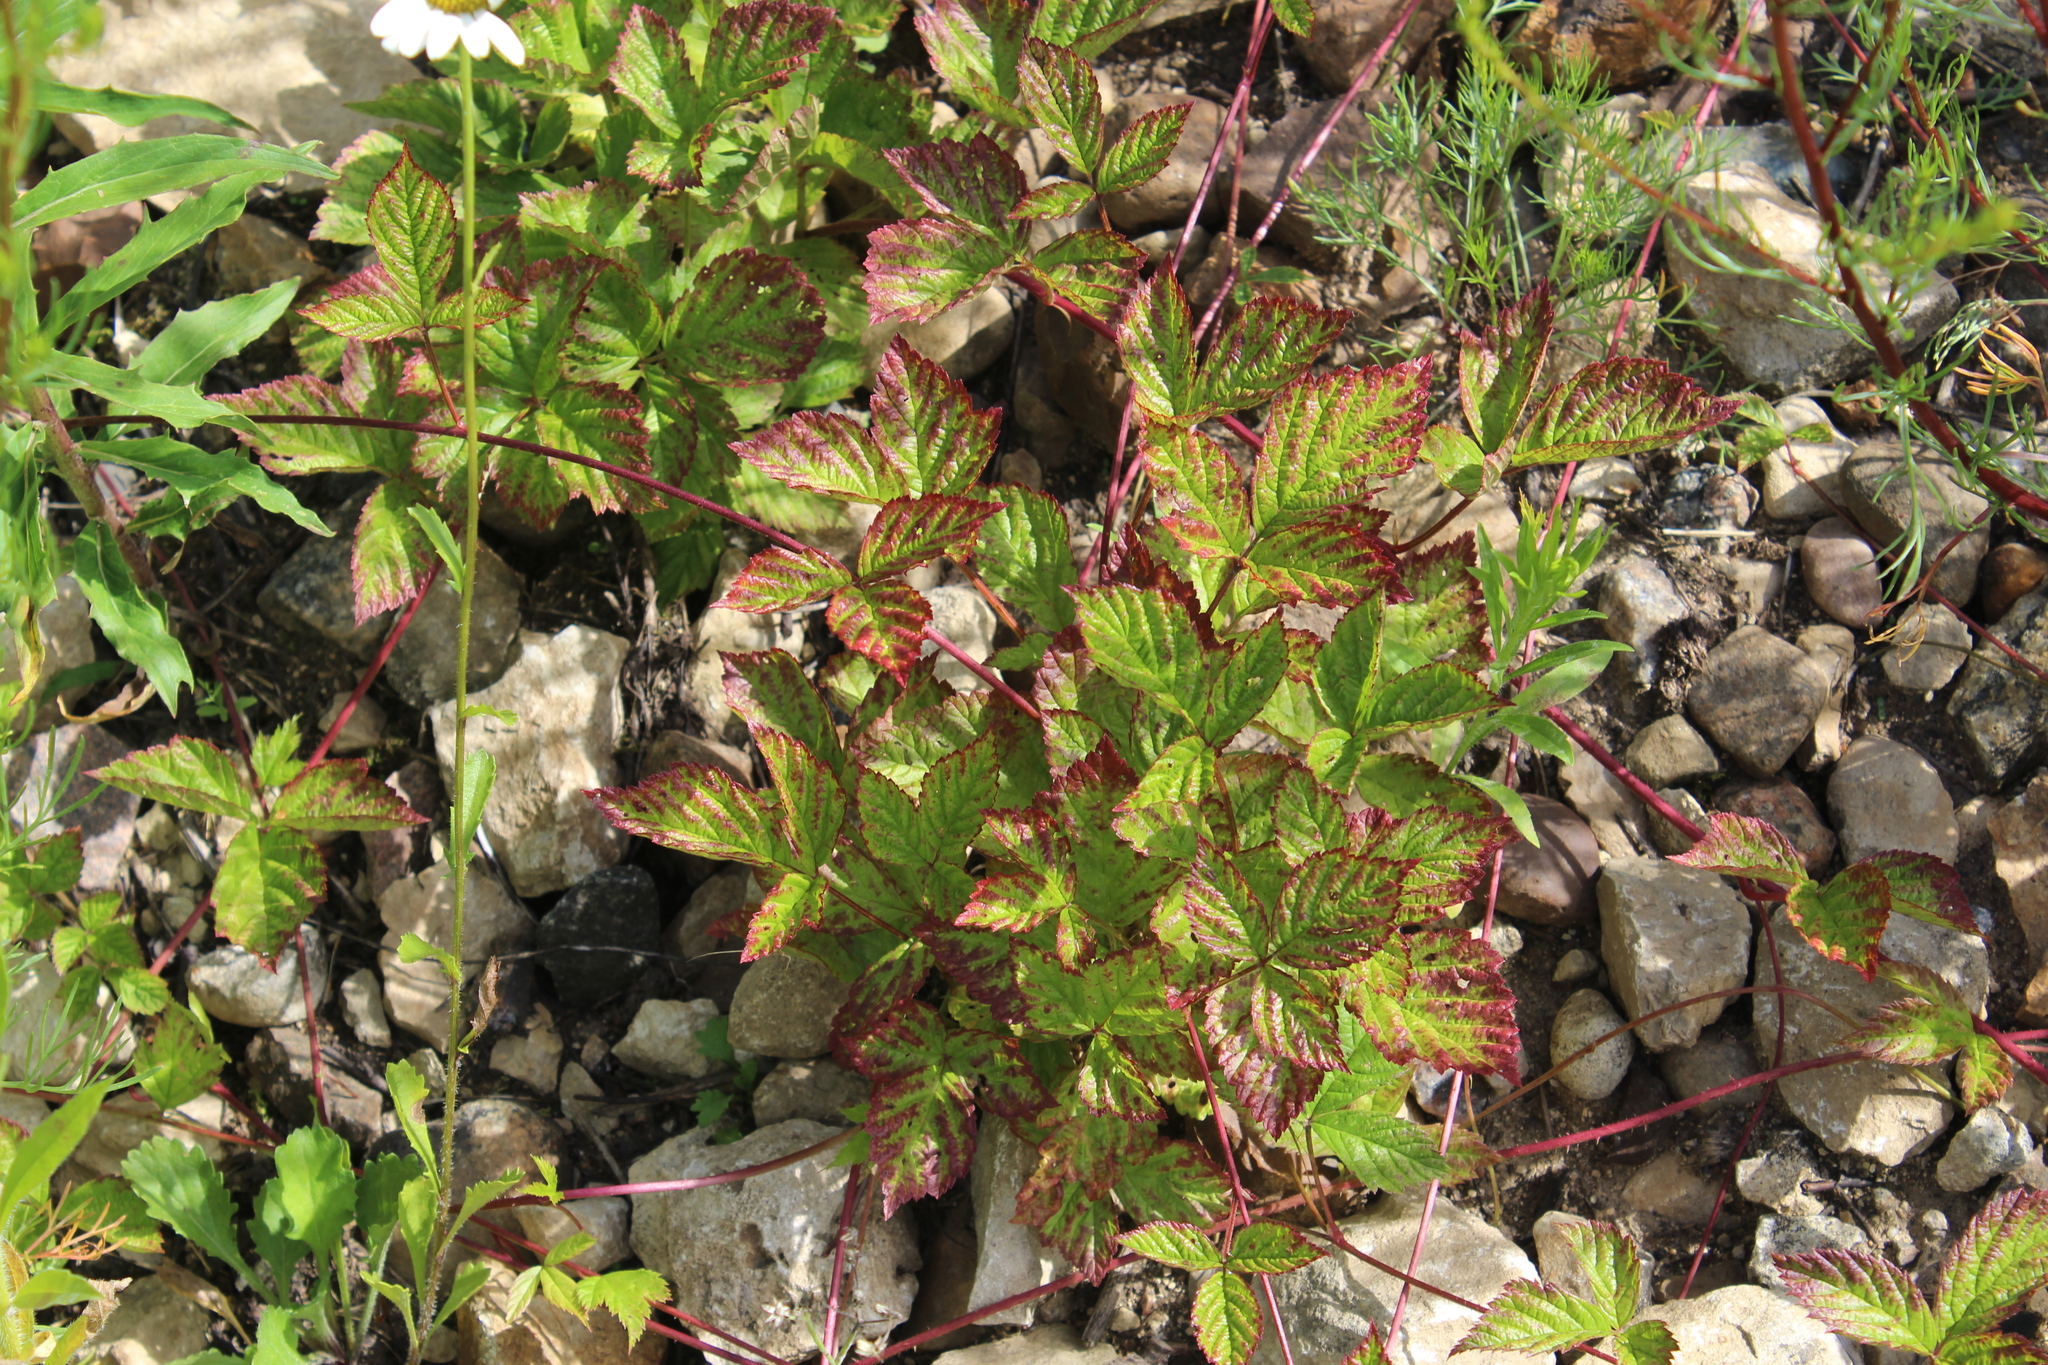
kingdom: Plantae
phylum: Tracheophyta
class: Magnoliopsida
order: Rosales
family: Rosaceae
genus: Rubus
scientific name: Rubus saxatilis
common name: Stone bramble
